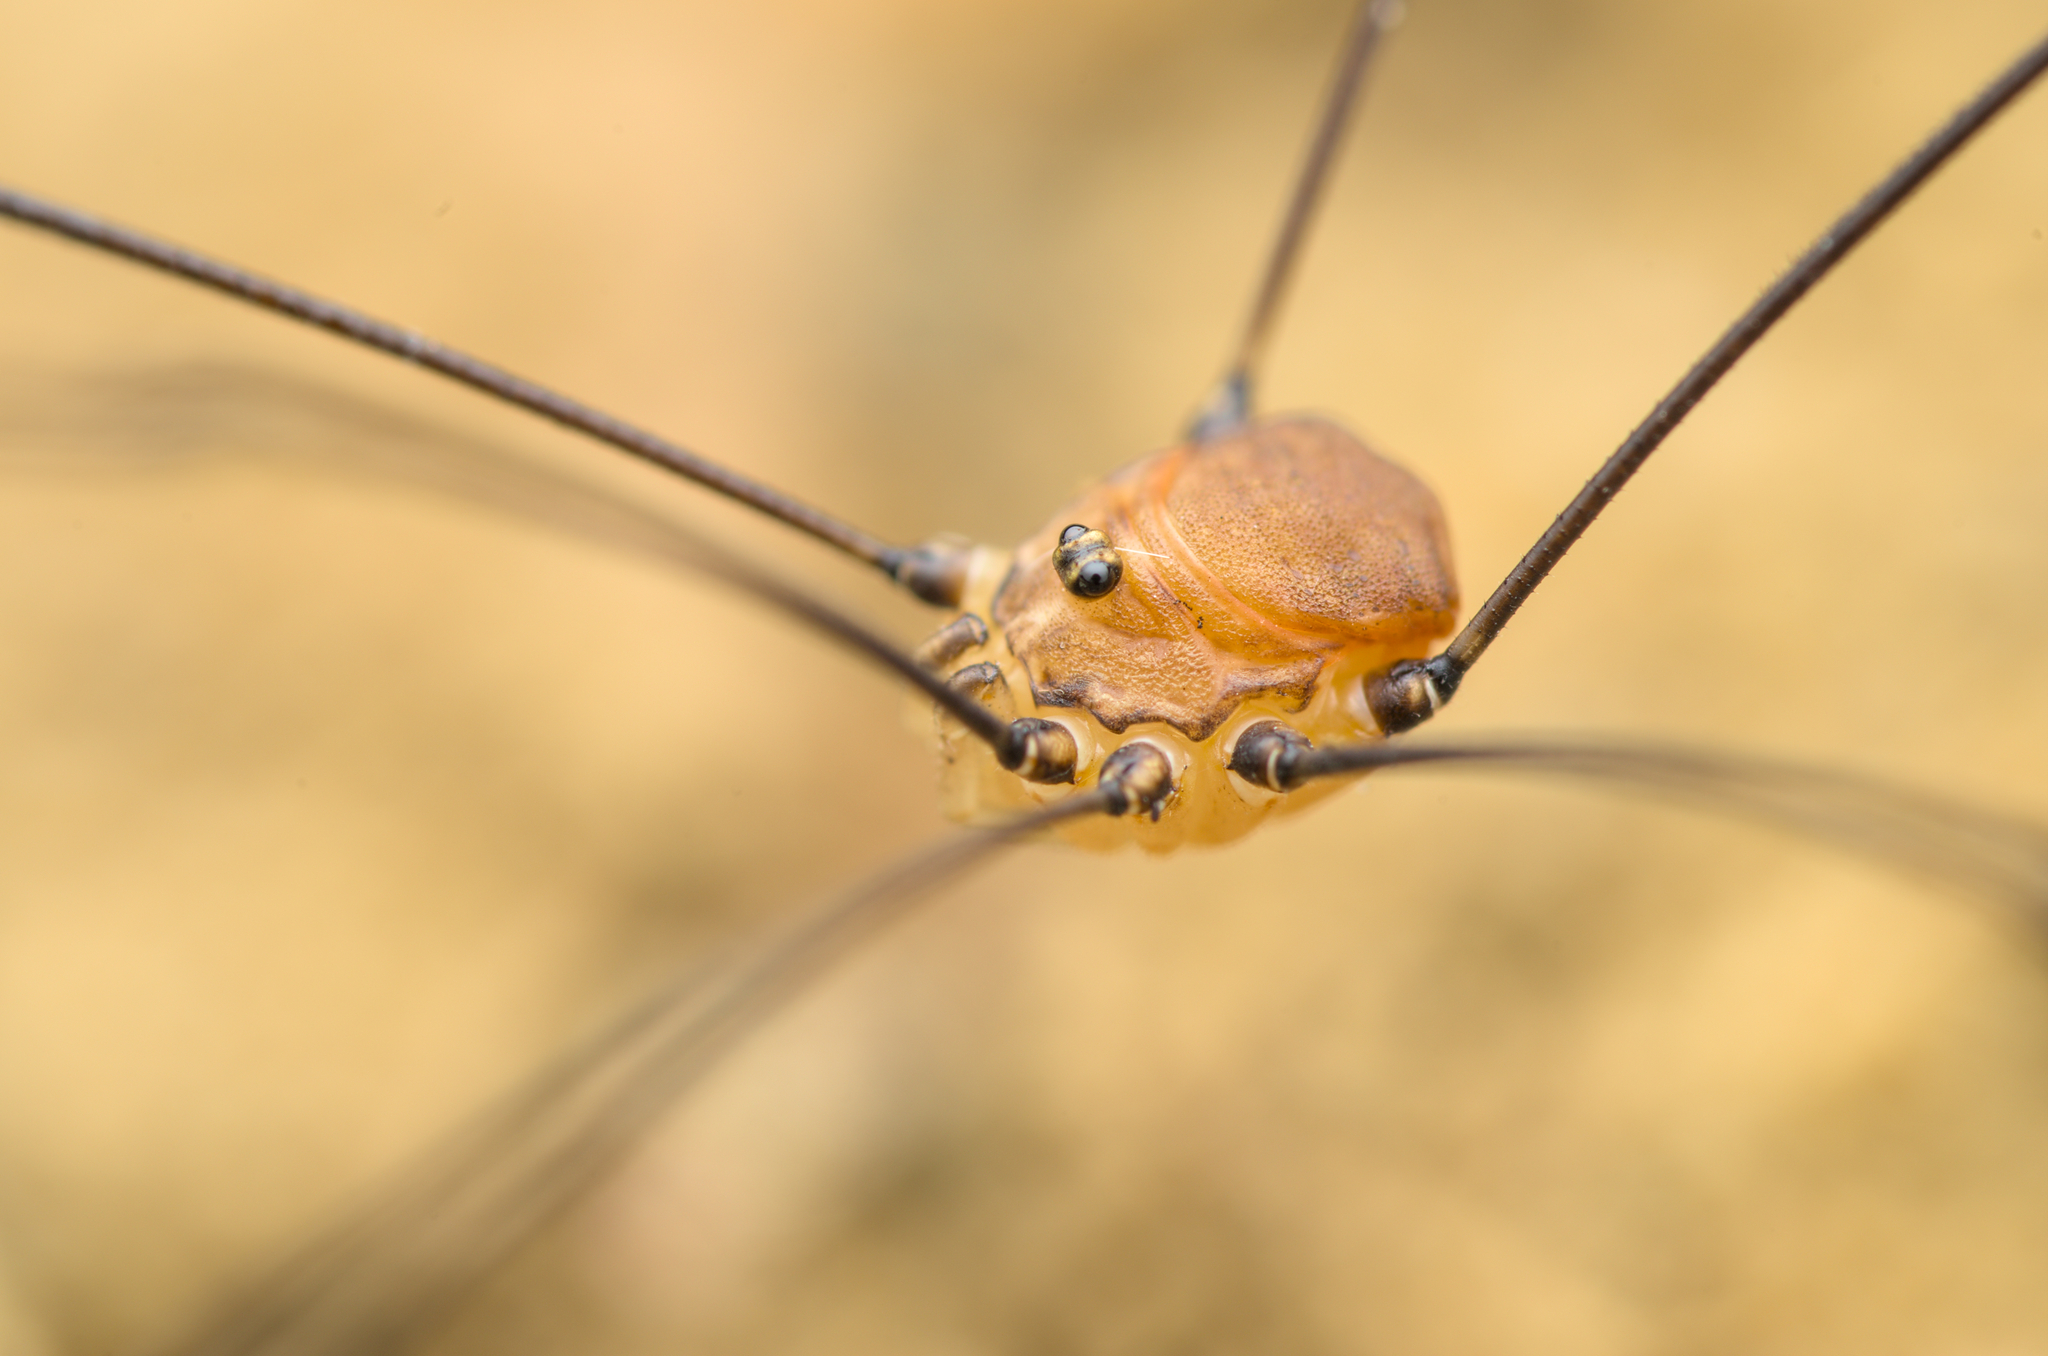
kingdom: Animalia
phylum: Arthropoda
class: Arachnida
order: Opiliones
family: Sclerosomatidae
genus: Leiobunum
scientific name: Leiobunum blackwalli
